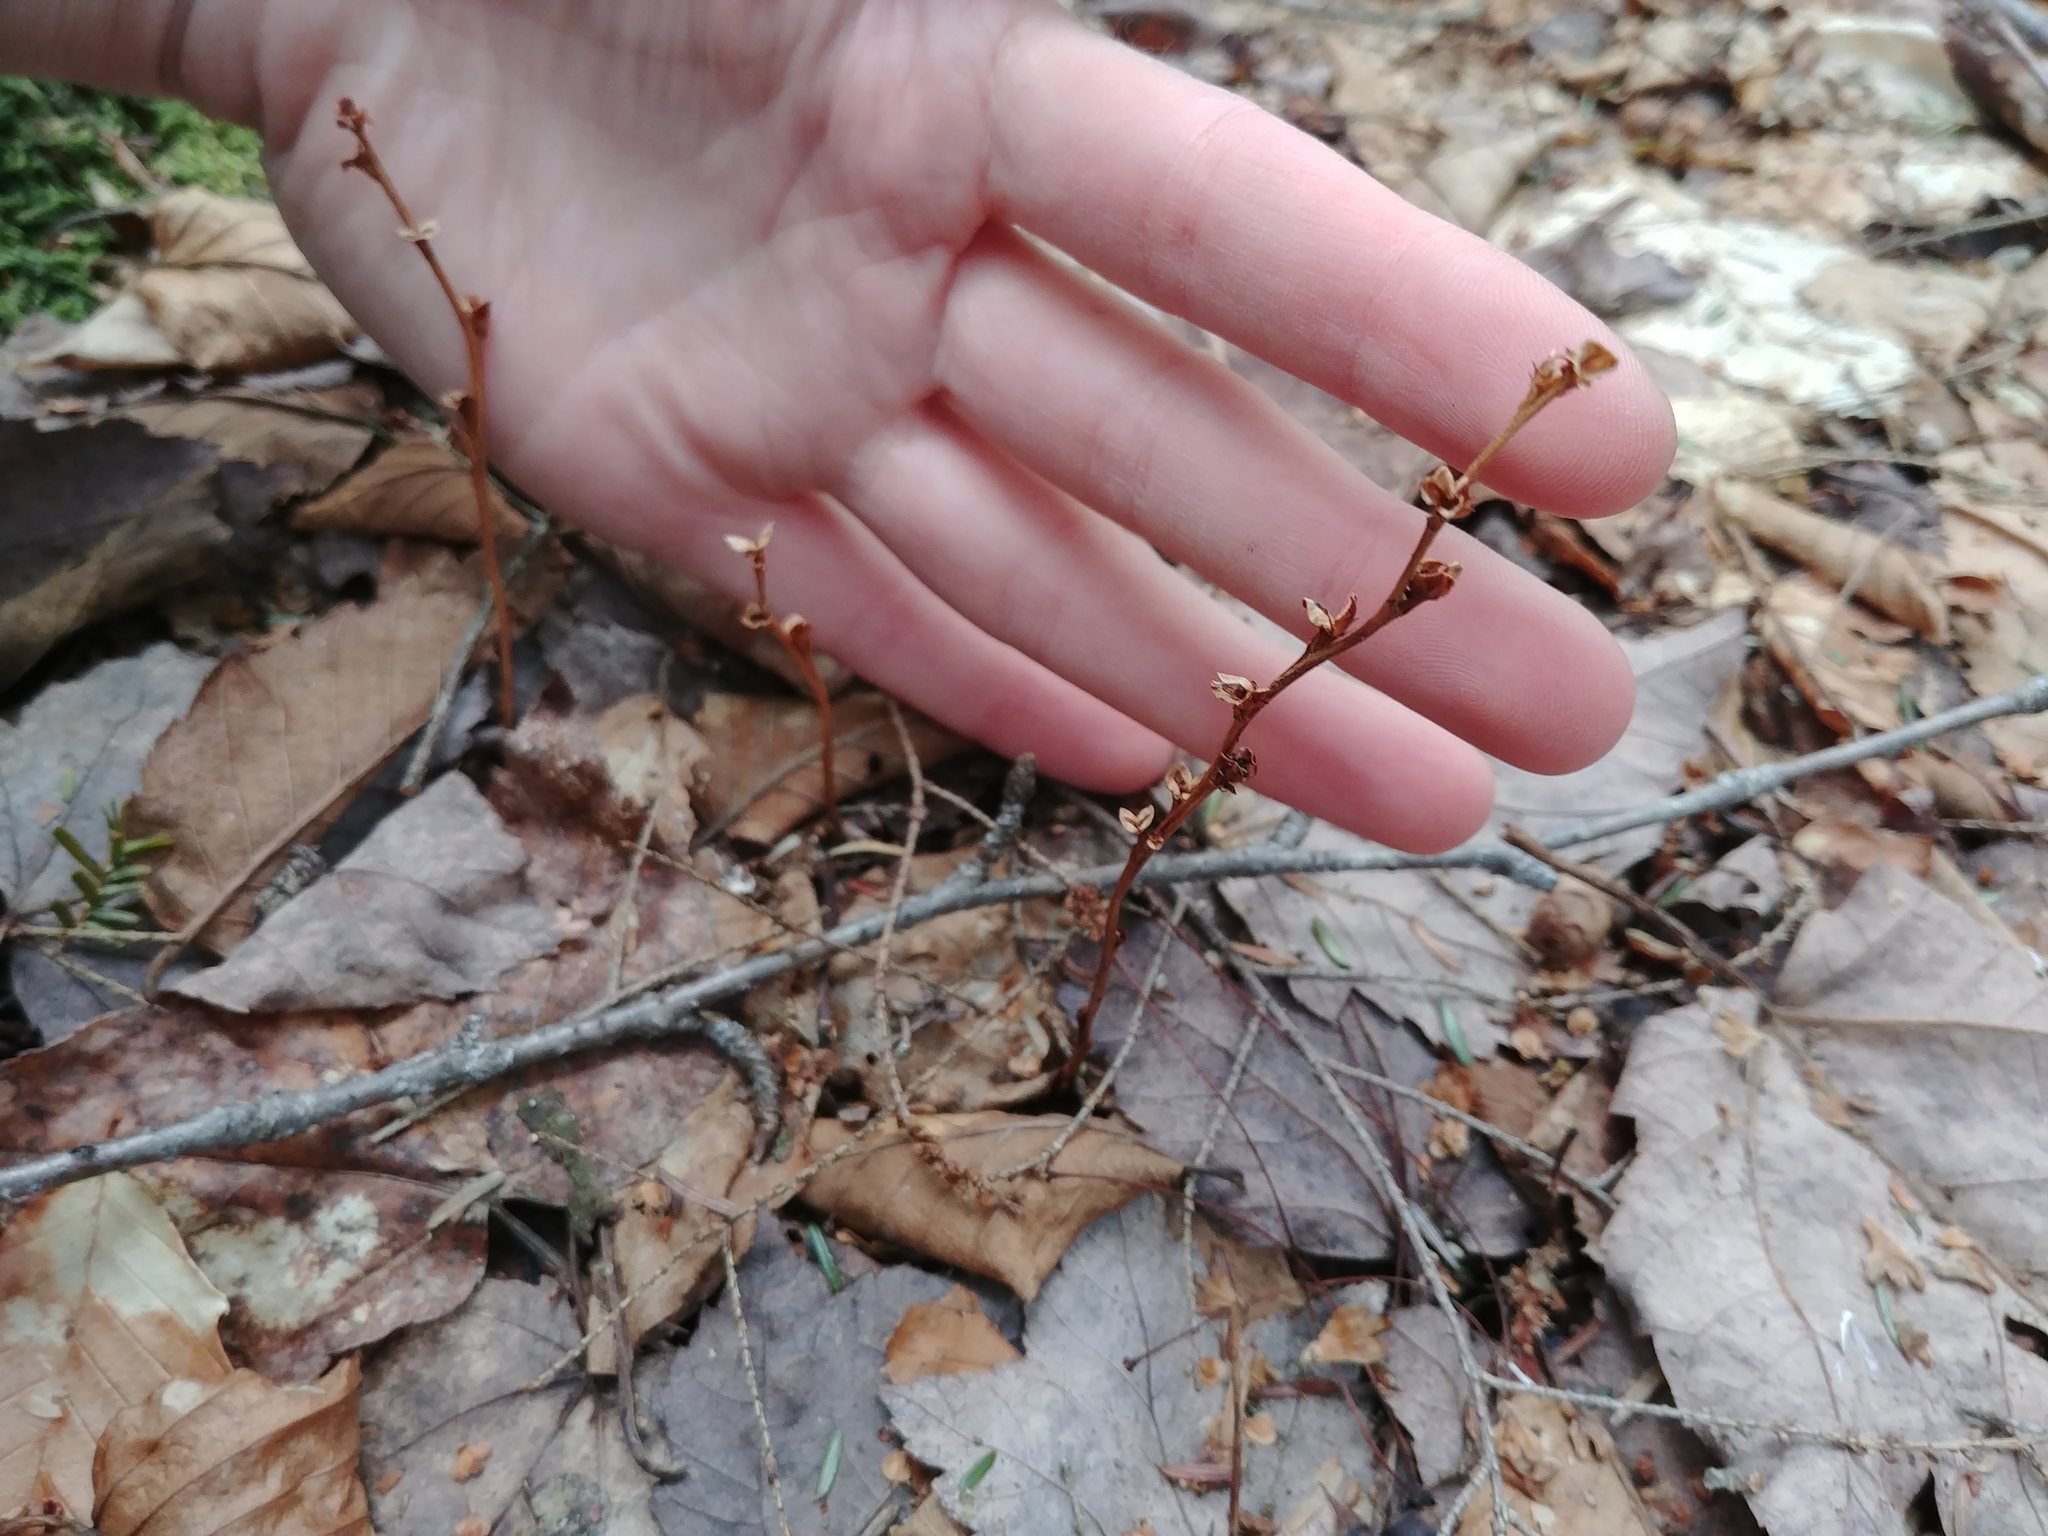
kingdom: Plantae
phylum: Tracheophyta
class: Magnoliopsida
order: Lamiales
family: Orobanchaceae
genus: Epifagus
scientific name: Epifagus virginiana
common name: Beechdrops
